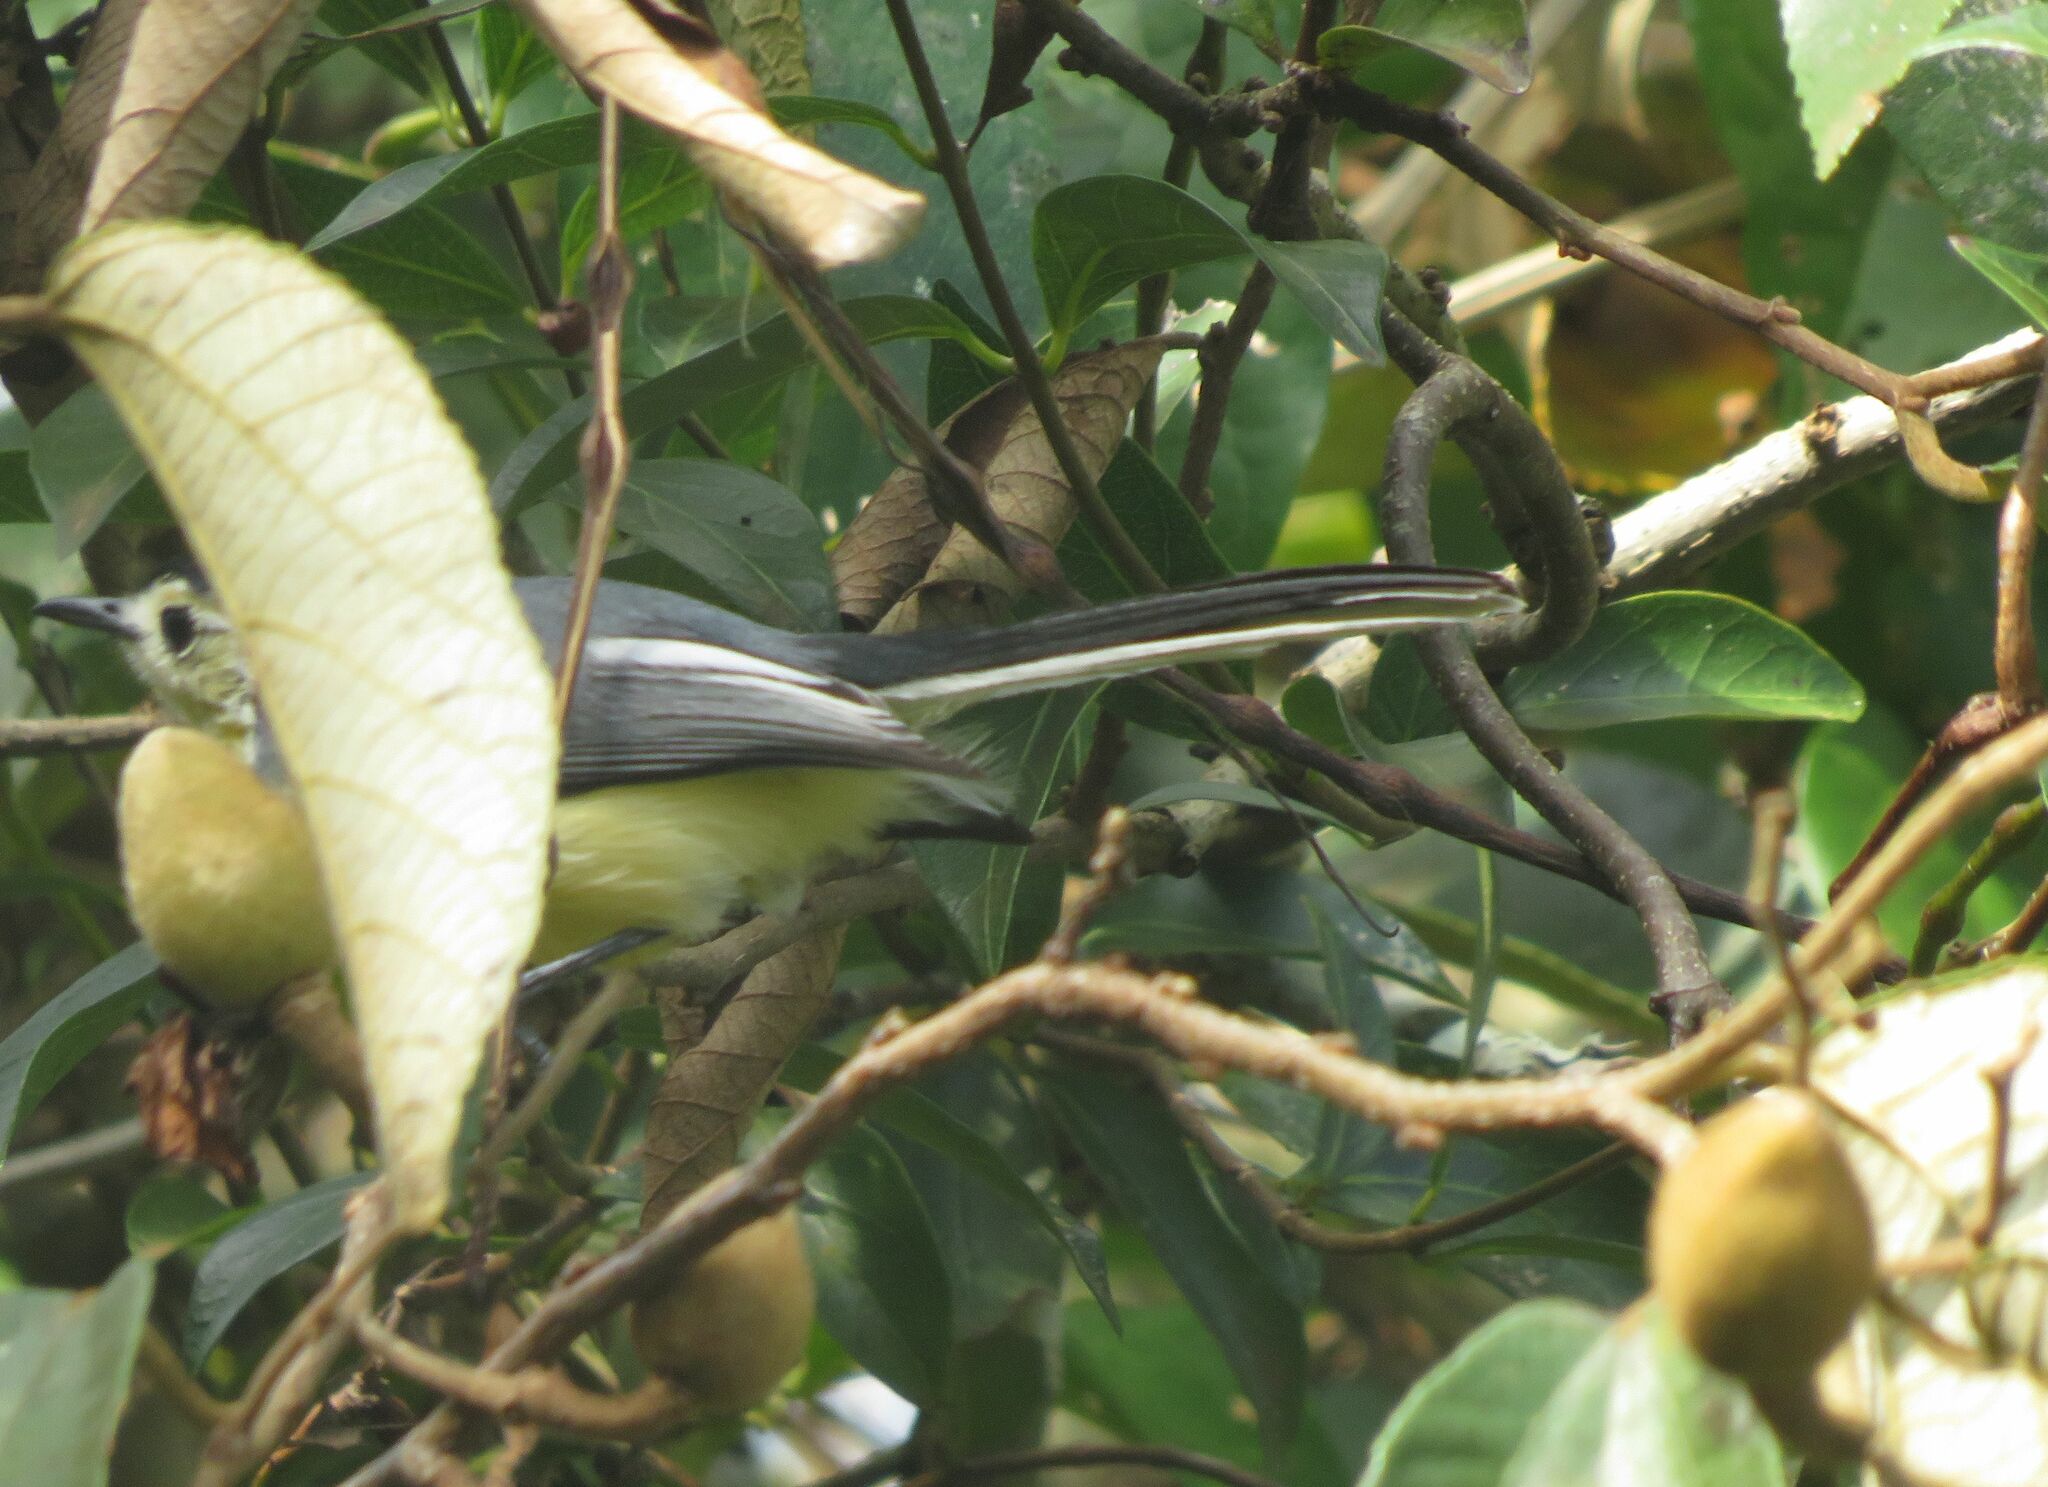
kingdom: Animalia
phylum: Chordata
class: Aves
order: Passeriformes
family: Polioptilidae
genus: Polioptila
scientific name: Polioptila lactea
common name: Creamy-bellied gnatcatcher
